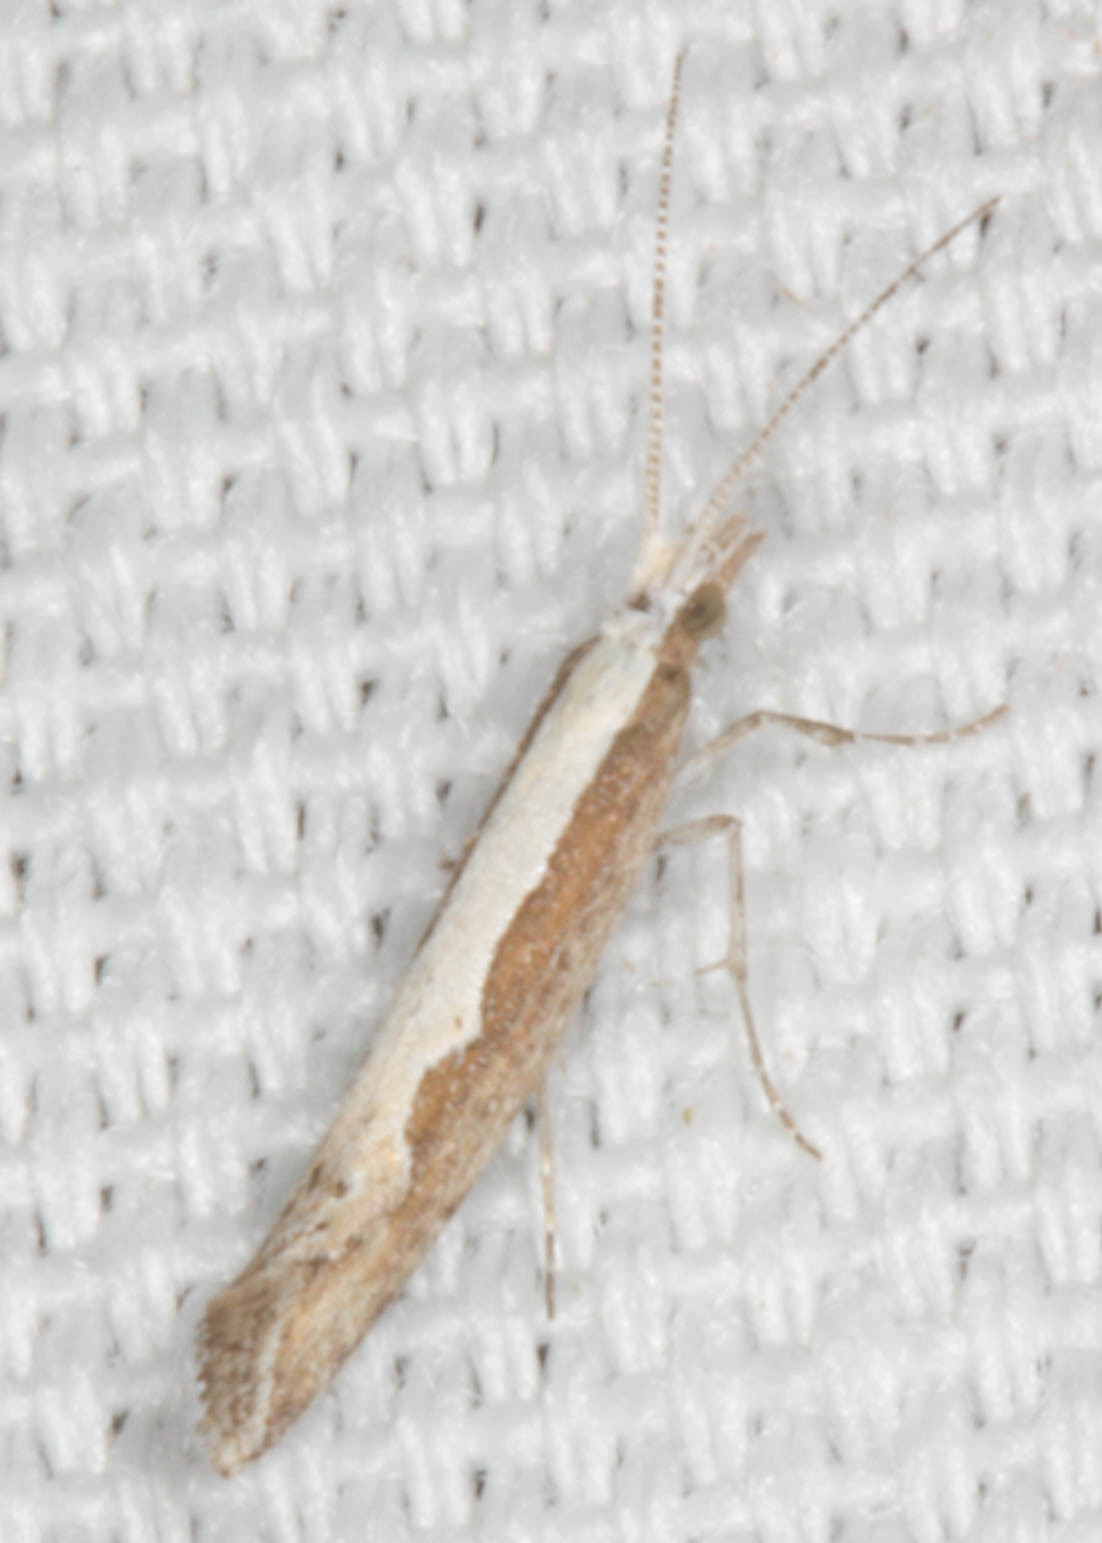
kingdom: Animalia
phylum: Arthropoda
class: Insecta
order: Lepidoptera
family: Plutellidae
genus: Plutella
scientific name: Plutella xylostella
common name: Diamond-back moth
